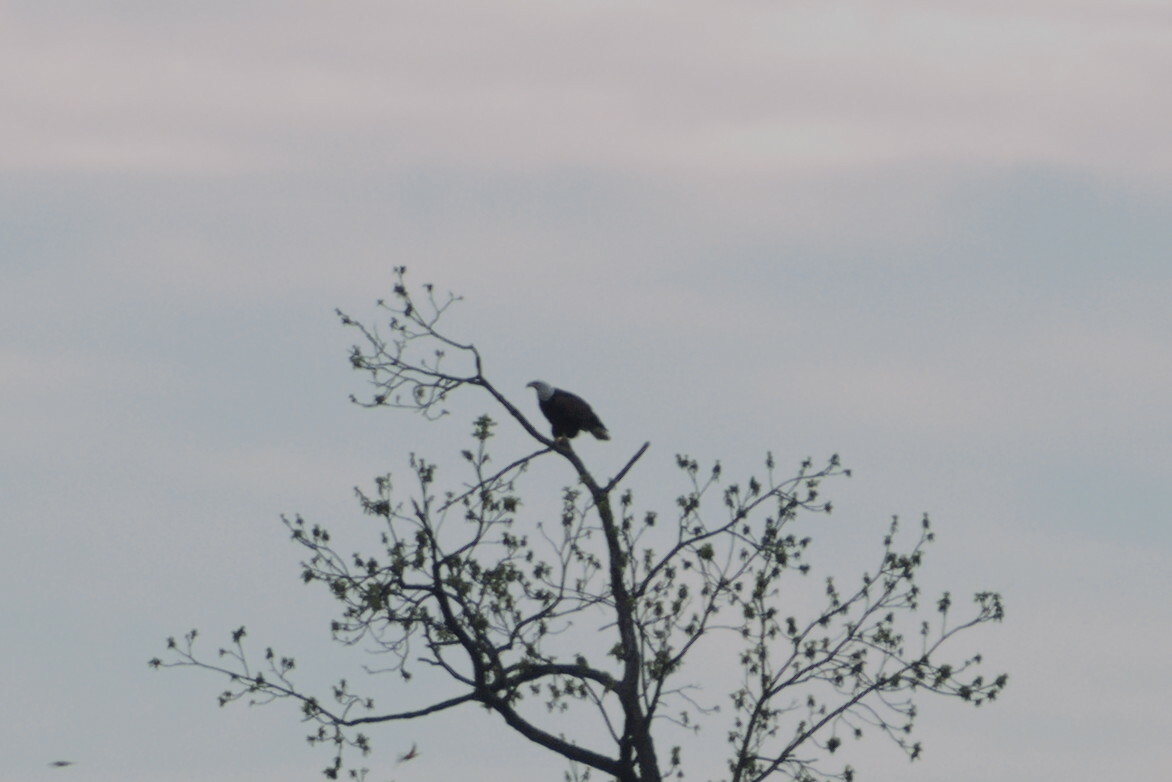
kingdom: Animalia
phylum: Chordata
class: Aves
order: Accipitriformes
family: Accipitridae
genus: Haliaeetus
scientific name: Haliaeetus leucocephalus
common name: Bald eagle
